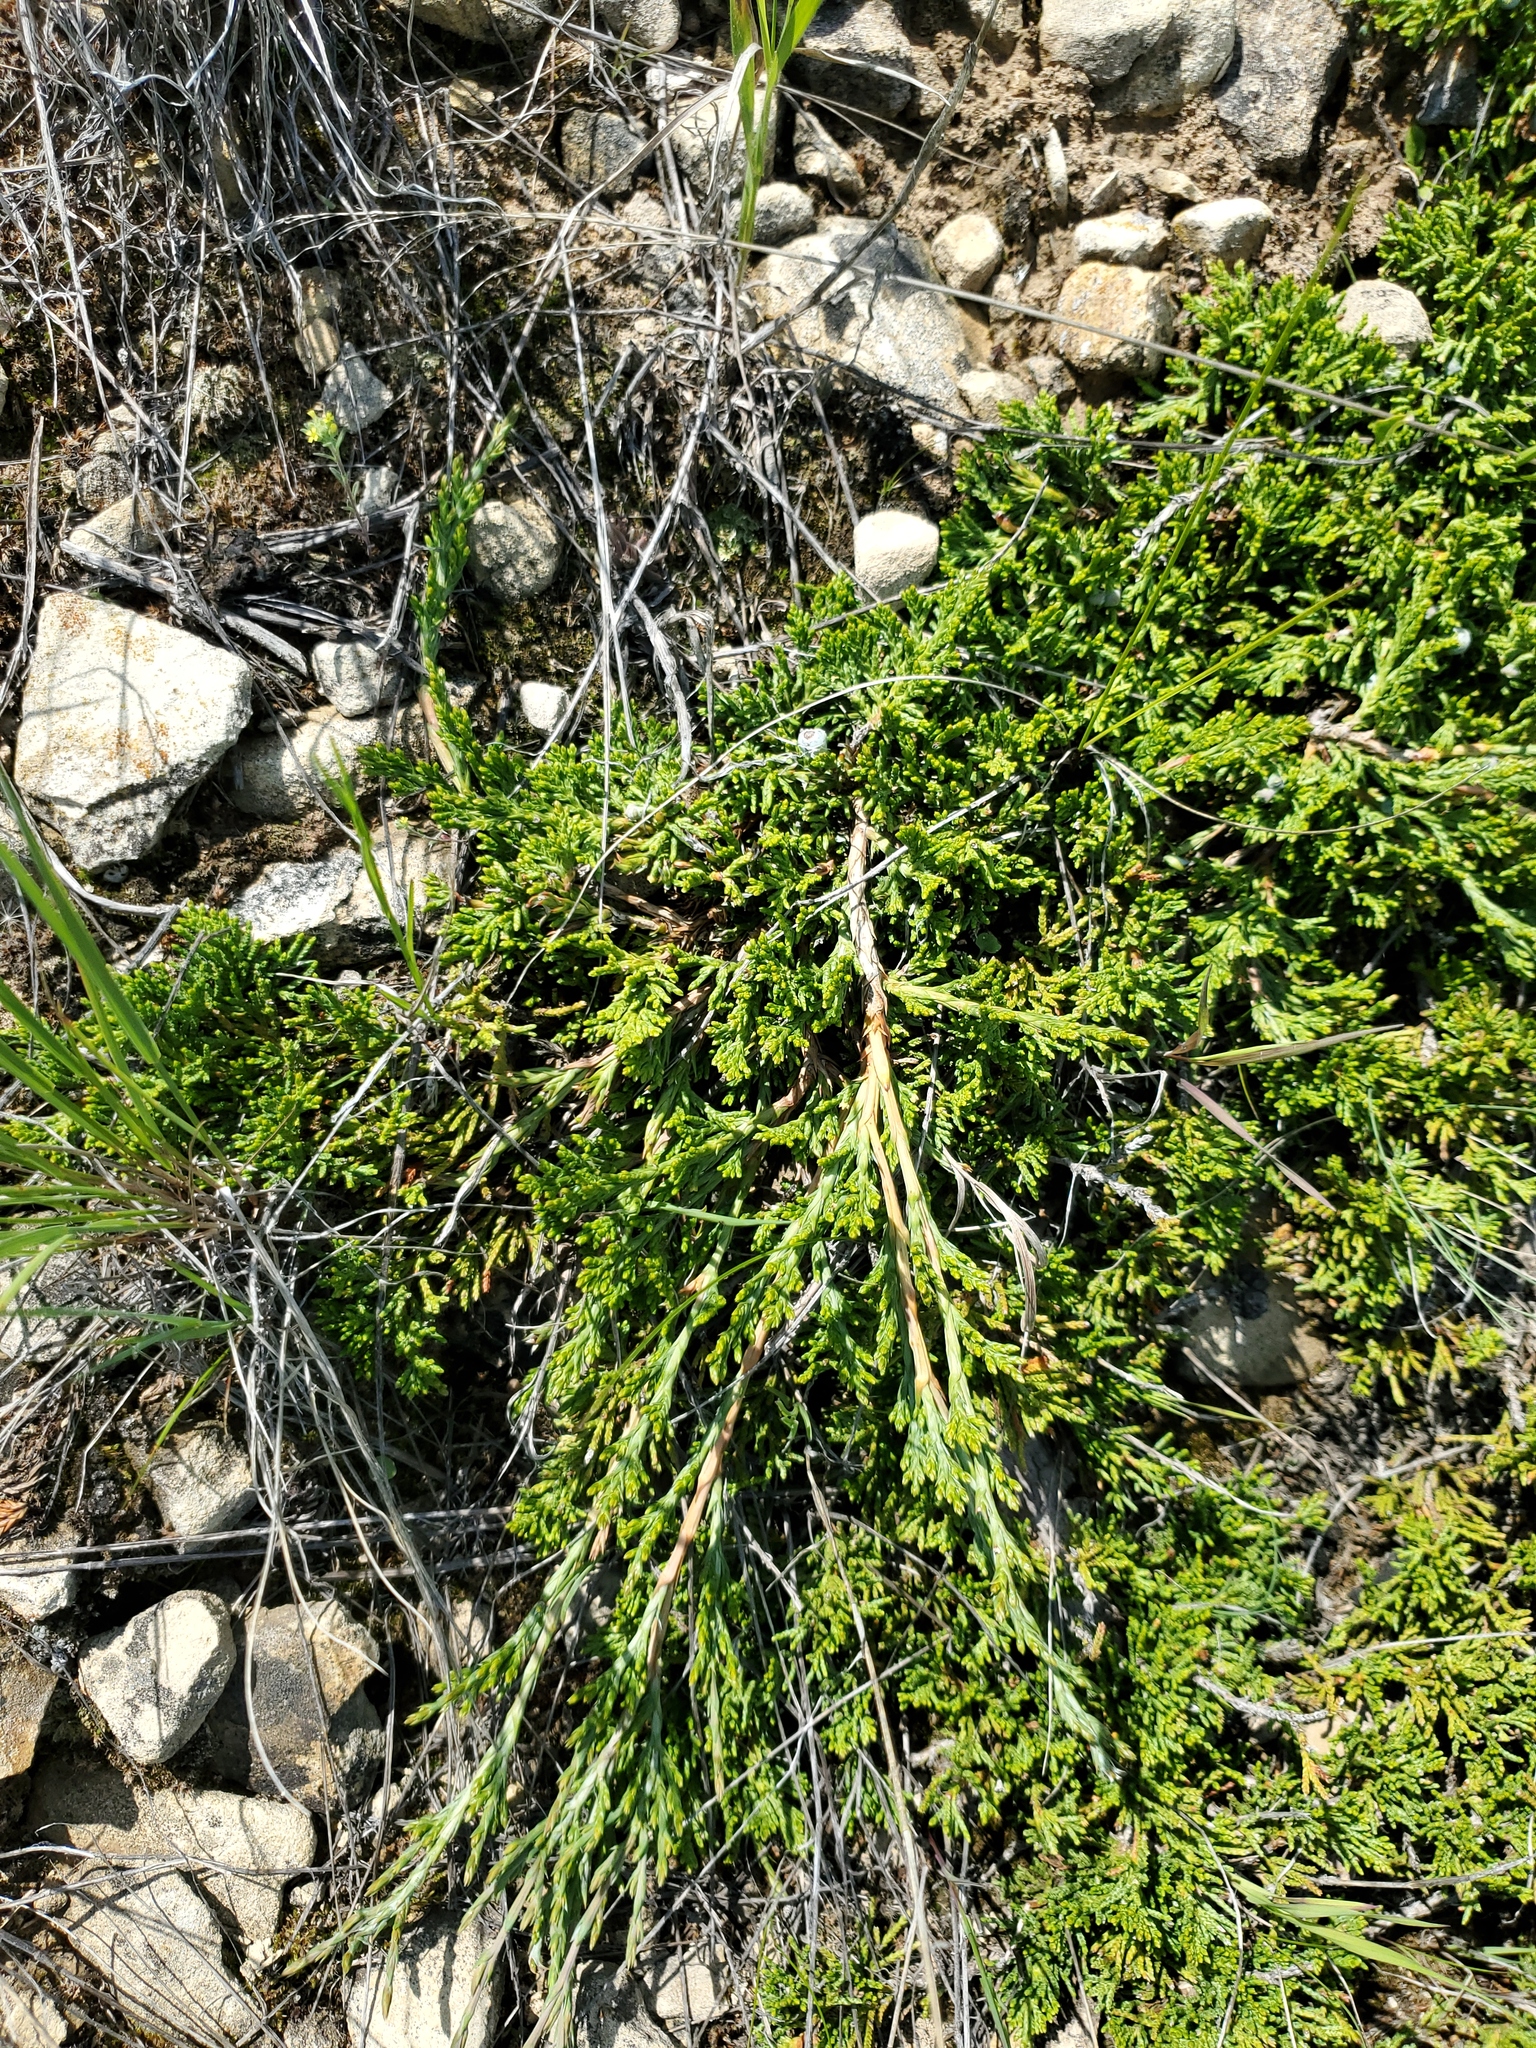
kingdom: Plantae
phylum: Tracheophyta
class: Pinopsida
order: Pinales
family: Cupressaceae
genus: Juniperus
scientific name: Juniperus horizontalis
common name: Creeping juniper
